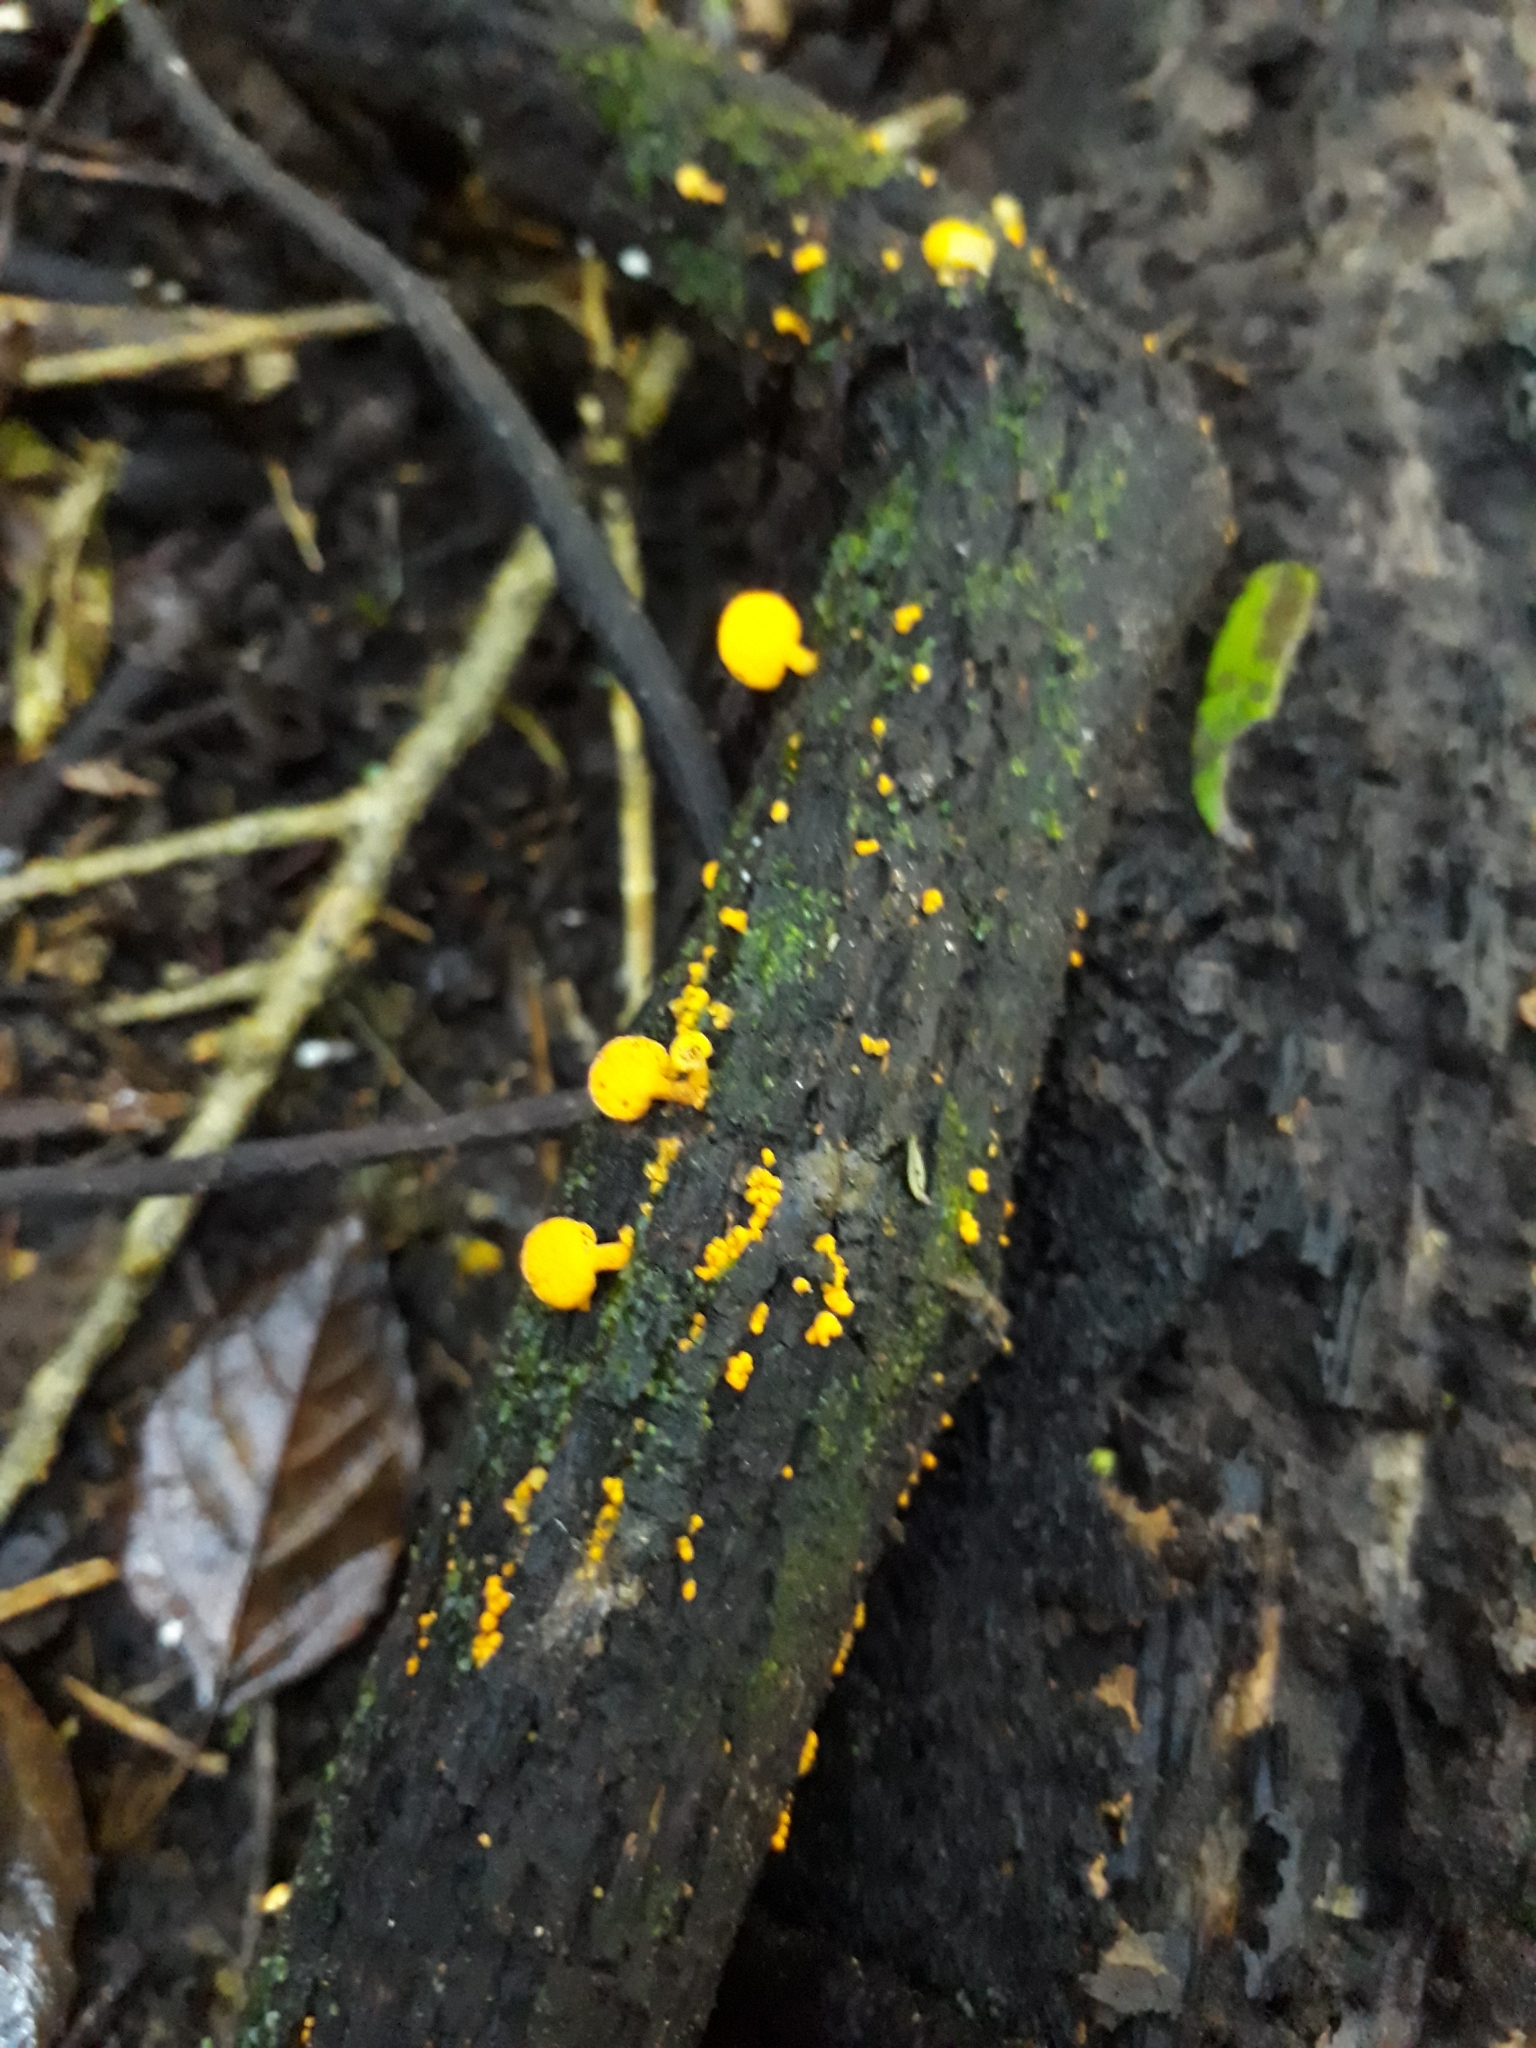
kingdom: Fungi
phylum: Basidiomycota
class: Agaricomycetes
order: Agaricales
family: Mycenaceae
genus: Favolaschia
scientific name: Favolaschia claudopus
